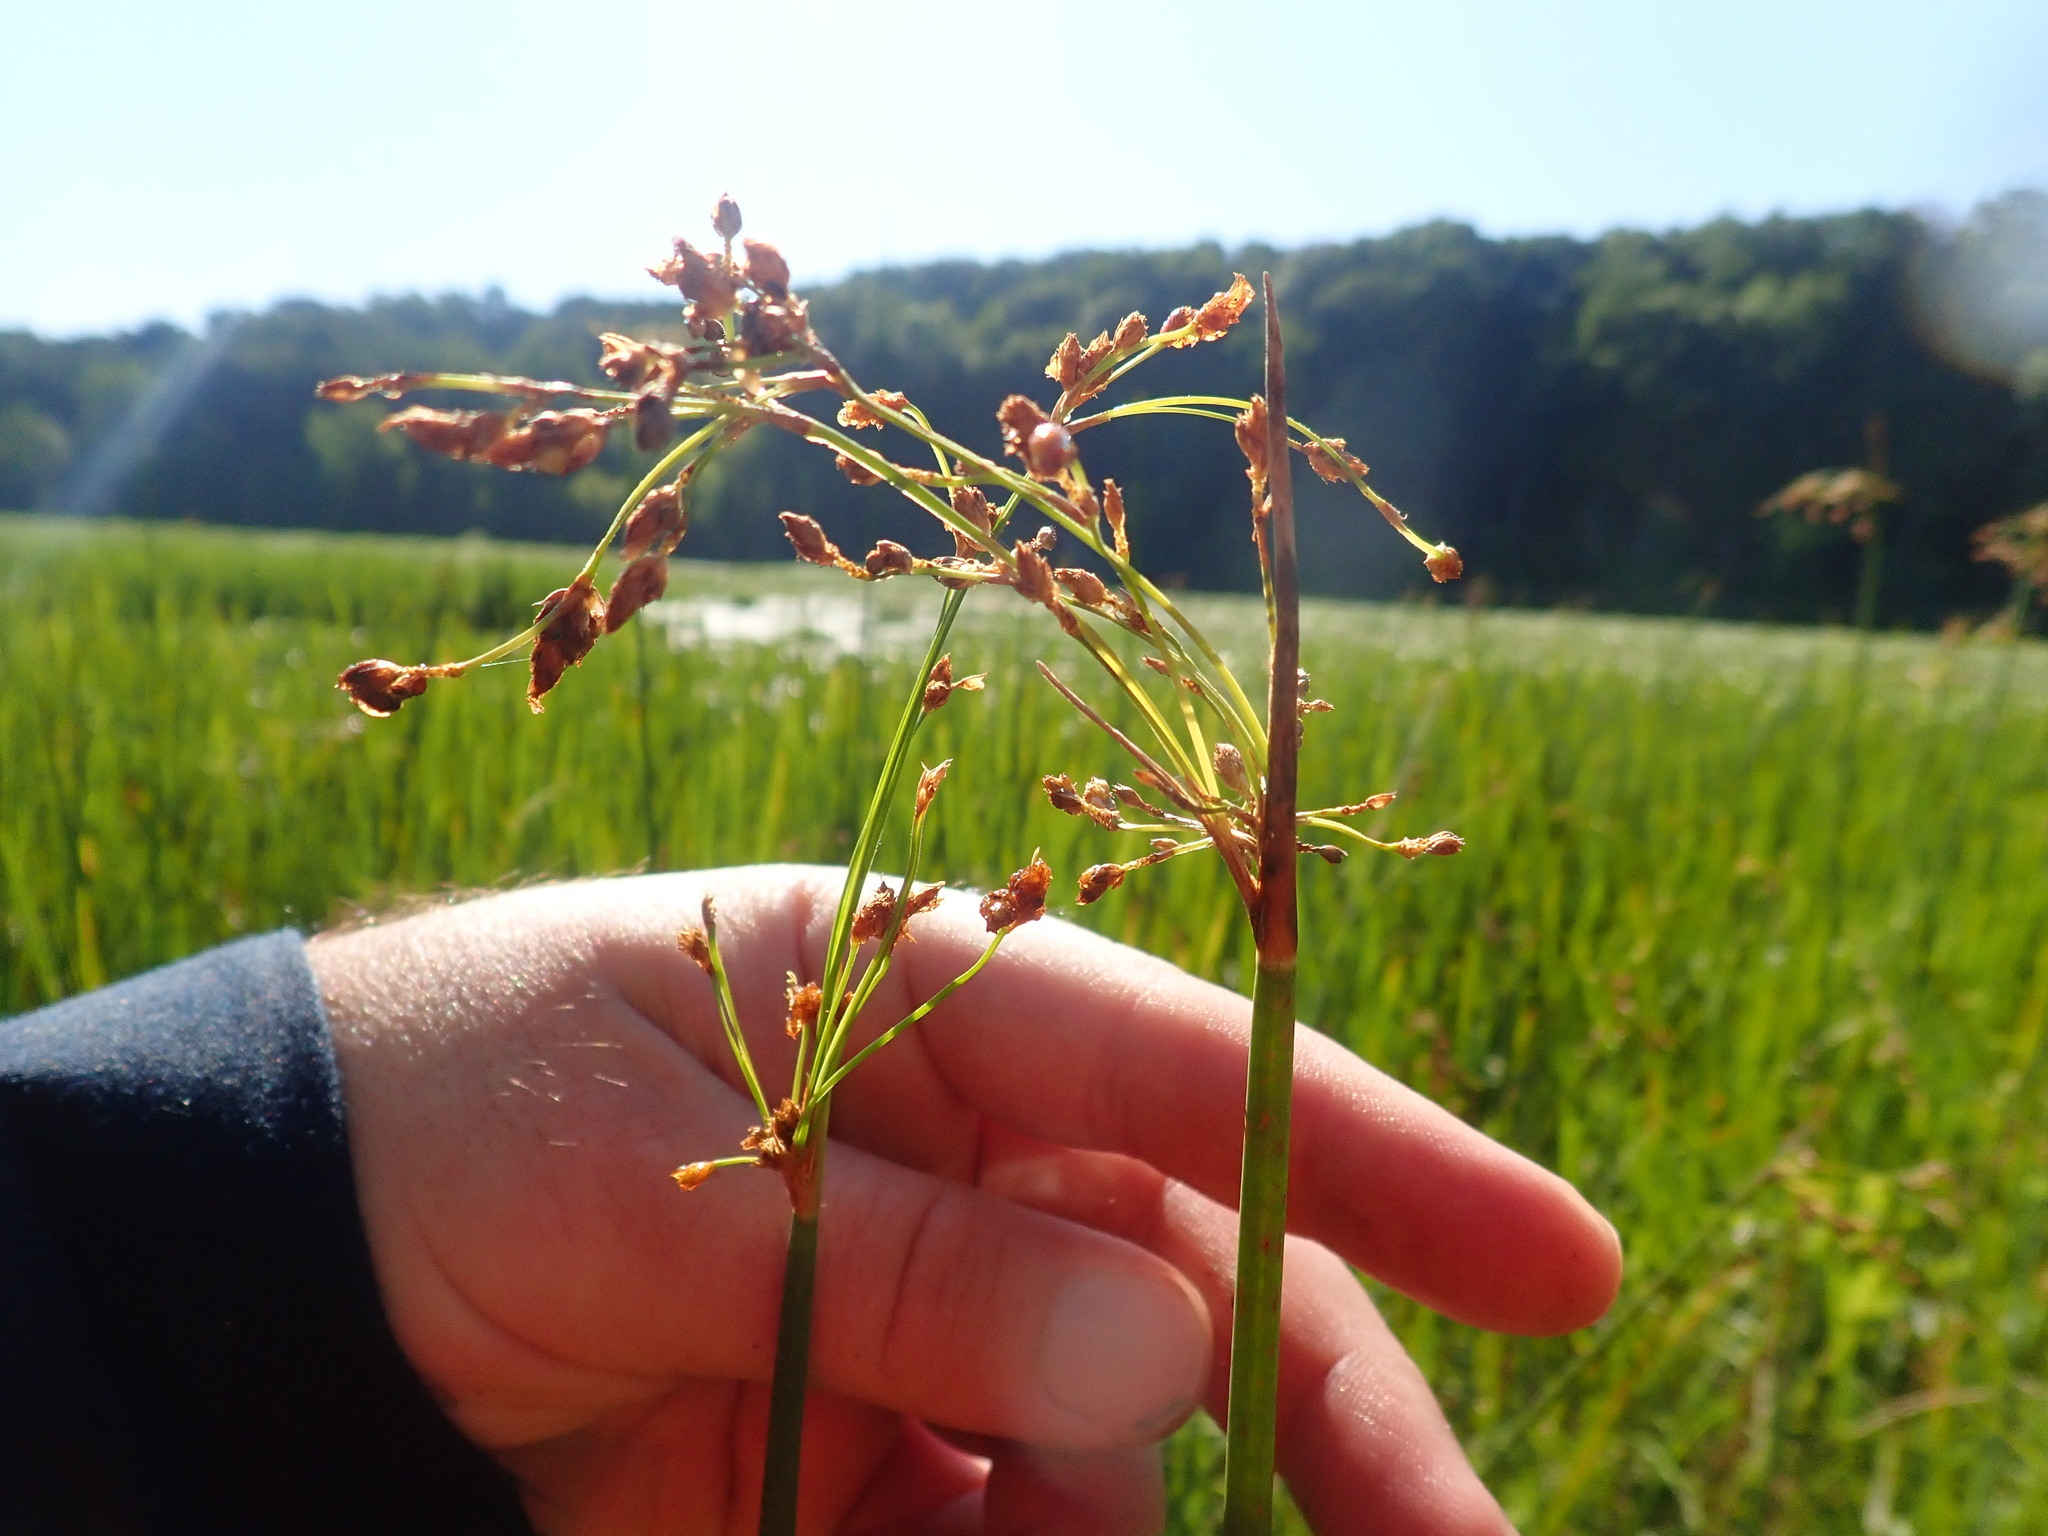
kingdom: Plantae
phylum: Tracheophyta
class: Liliopsida
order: Poales
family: Cyperaceae
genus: Schoenoplectus
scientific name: Schoenoplectus tabernaemontani
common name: Grey club-rush
